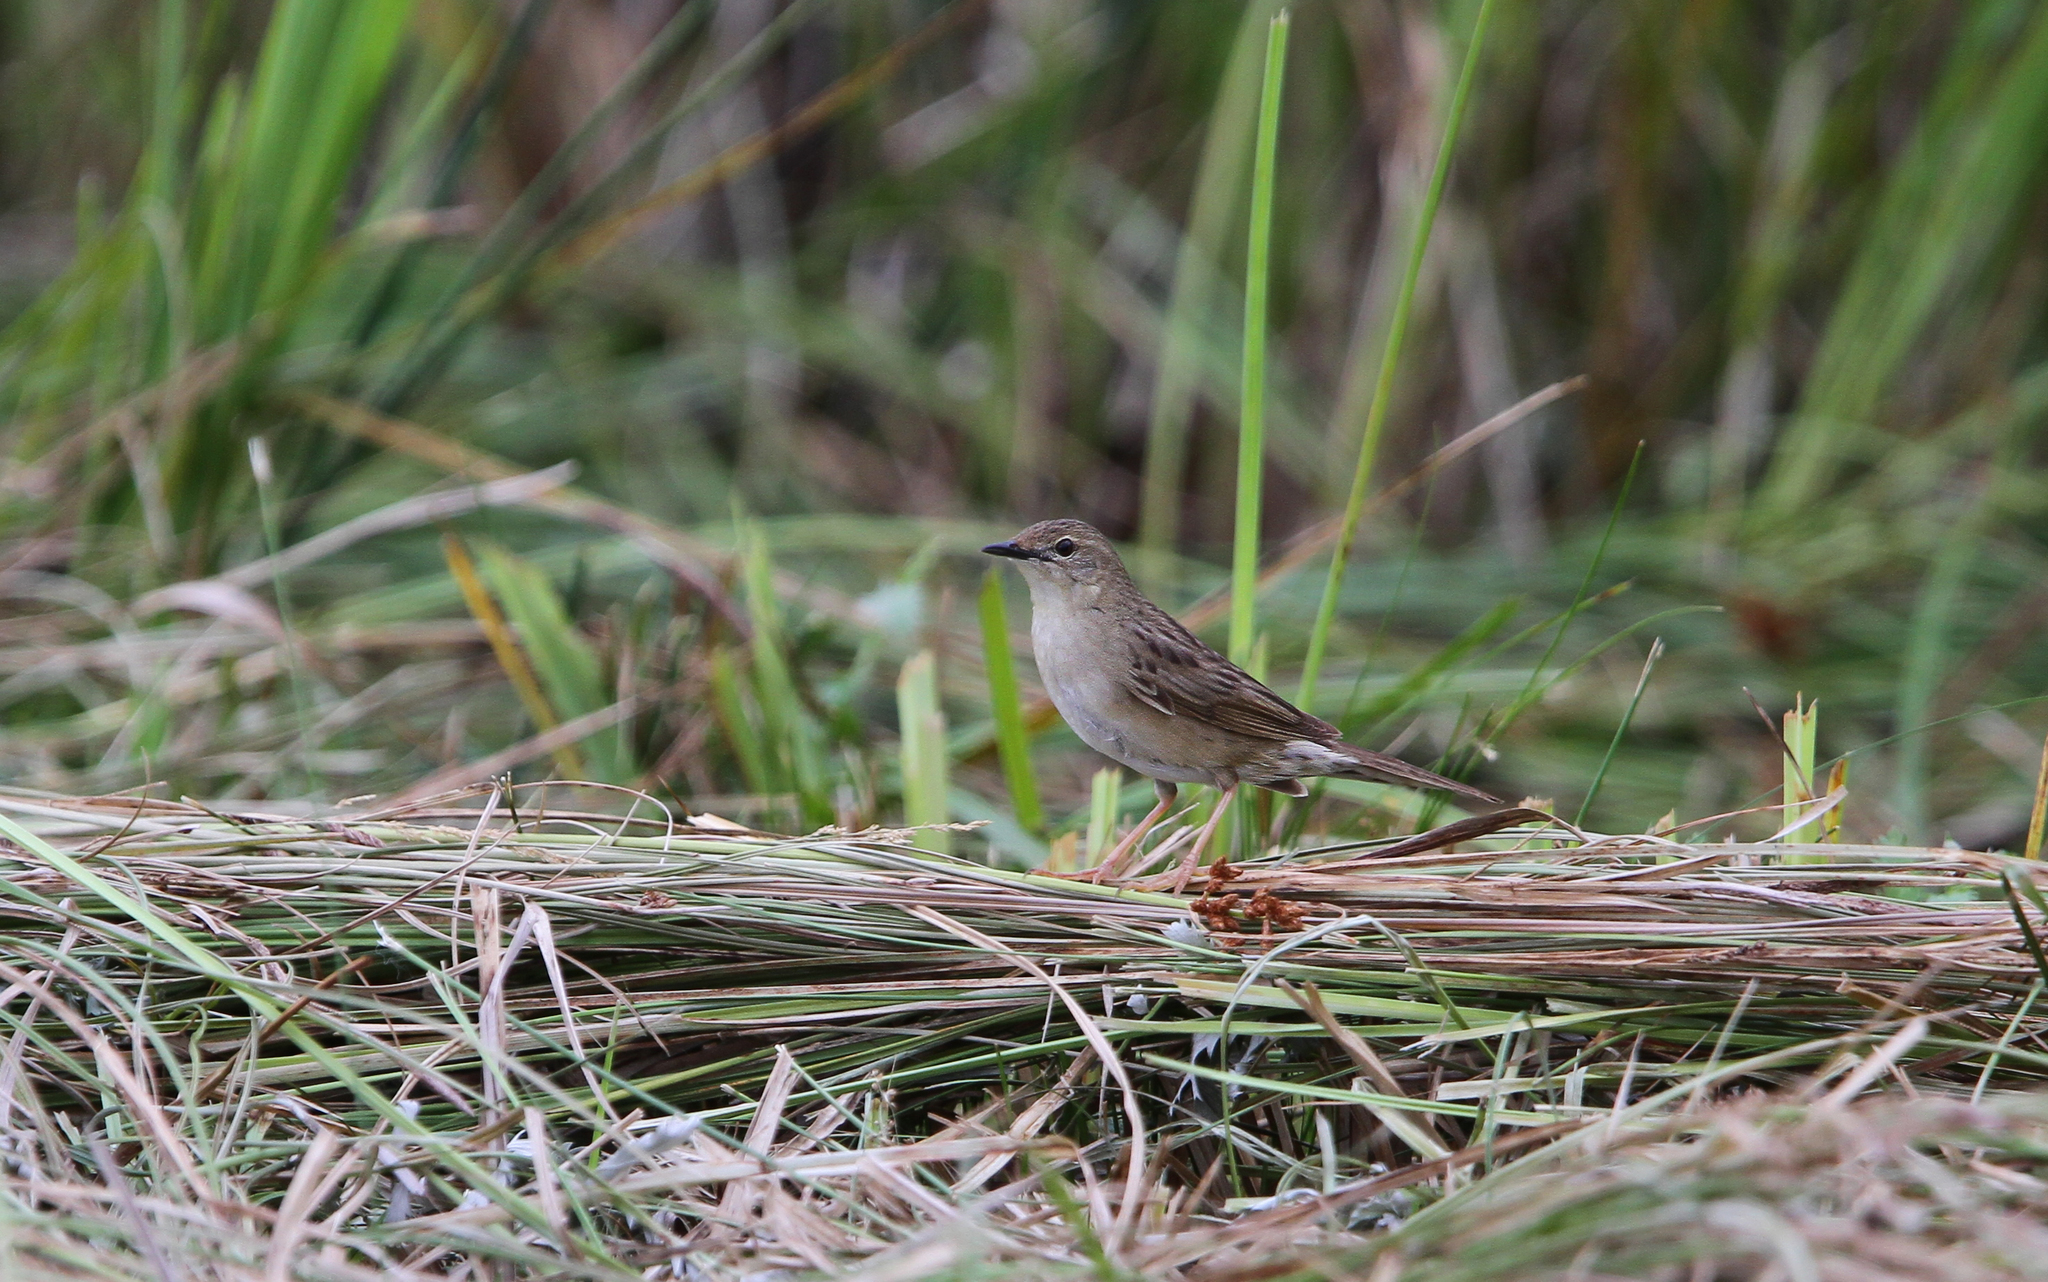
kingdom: Animalia
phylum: Chordata
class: Aves
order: Passeriformes
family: Locustellidae
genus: Locustella
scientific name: Locustella naevia
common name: Common grasshopper warbler
